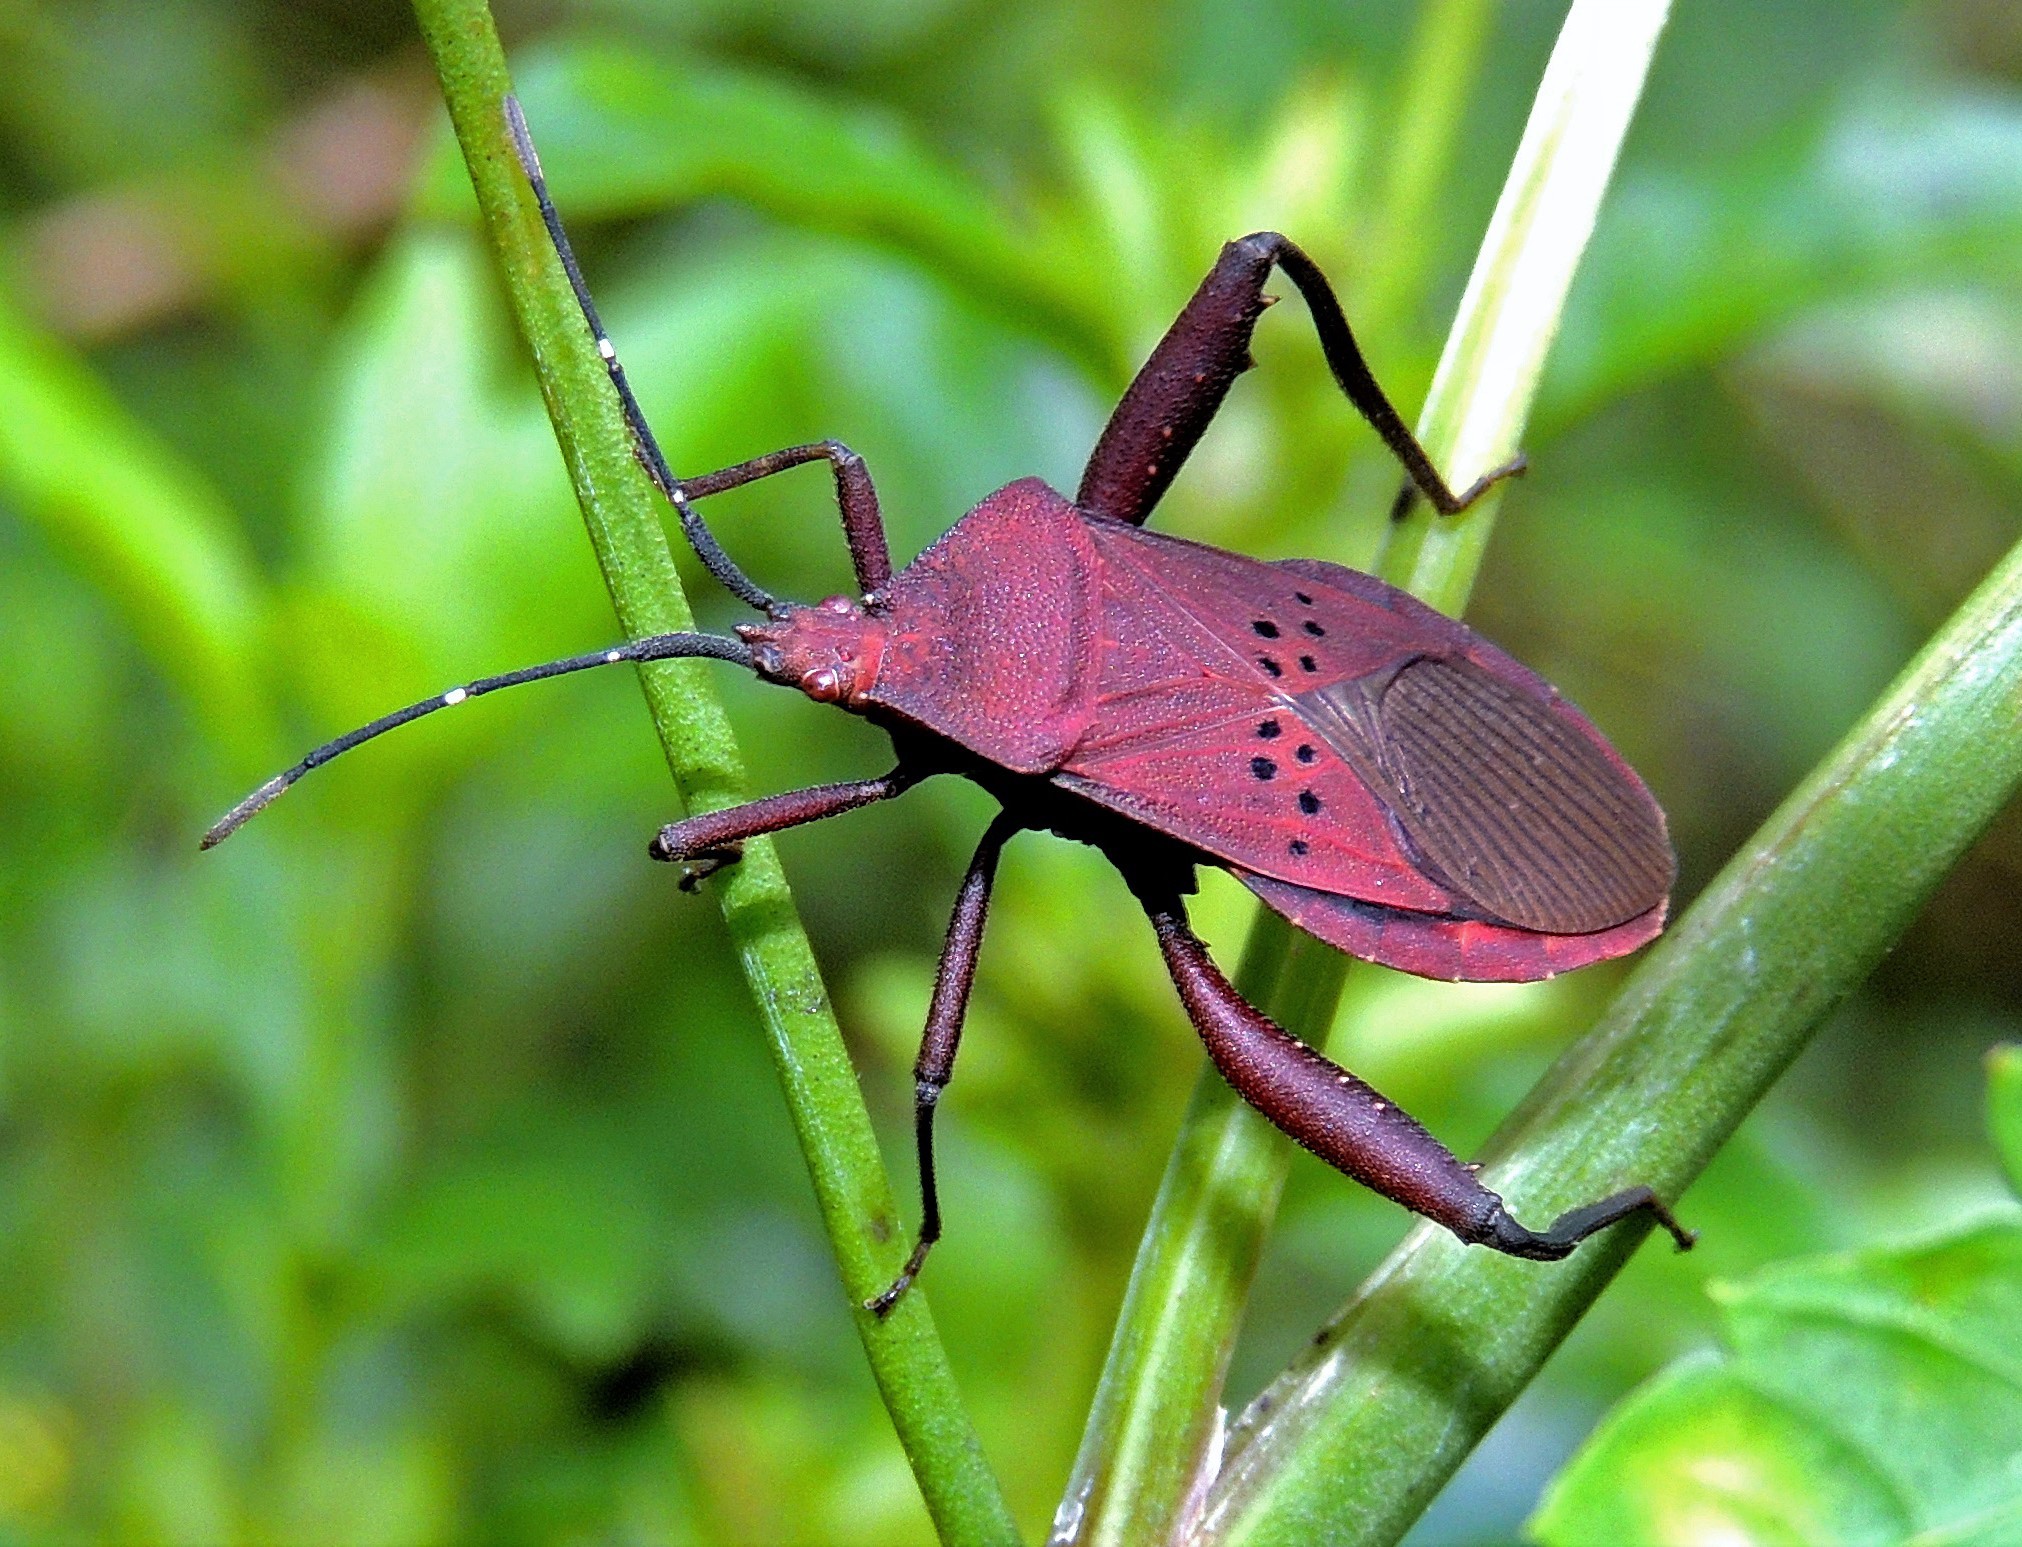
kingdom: Animalia
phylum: Arthropoda
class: Insecta
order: Hemiptera
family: Coreidae
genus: Ugnius
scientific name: Ugnius badius
